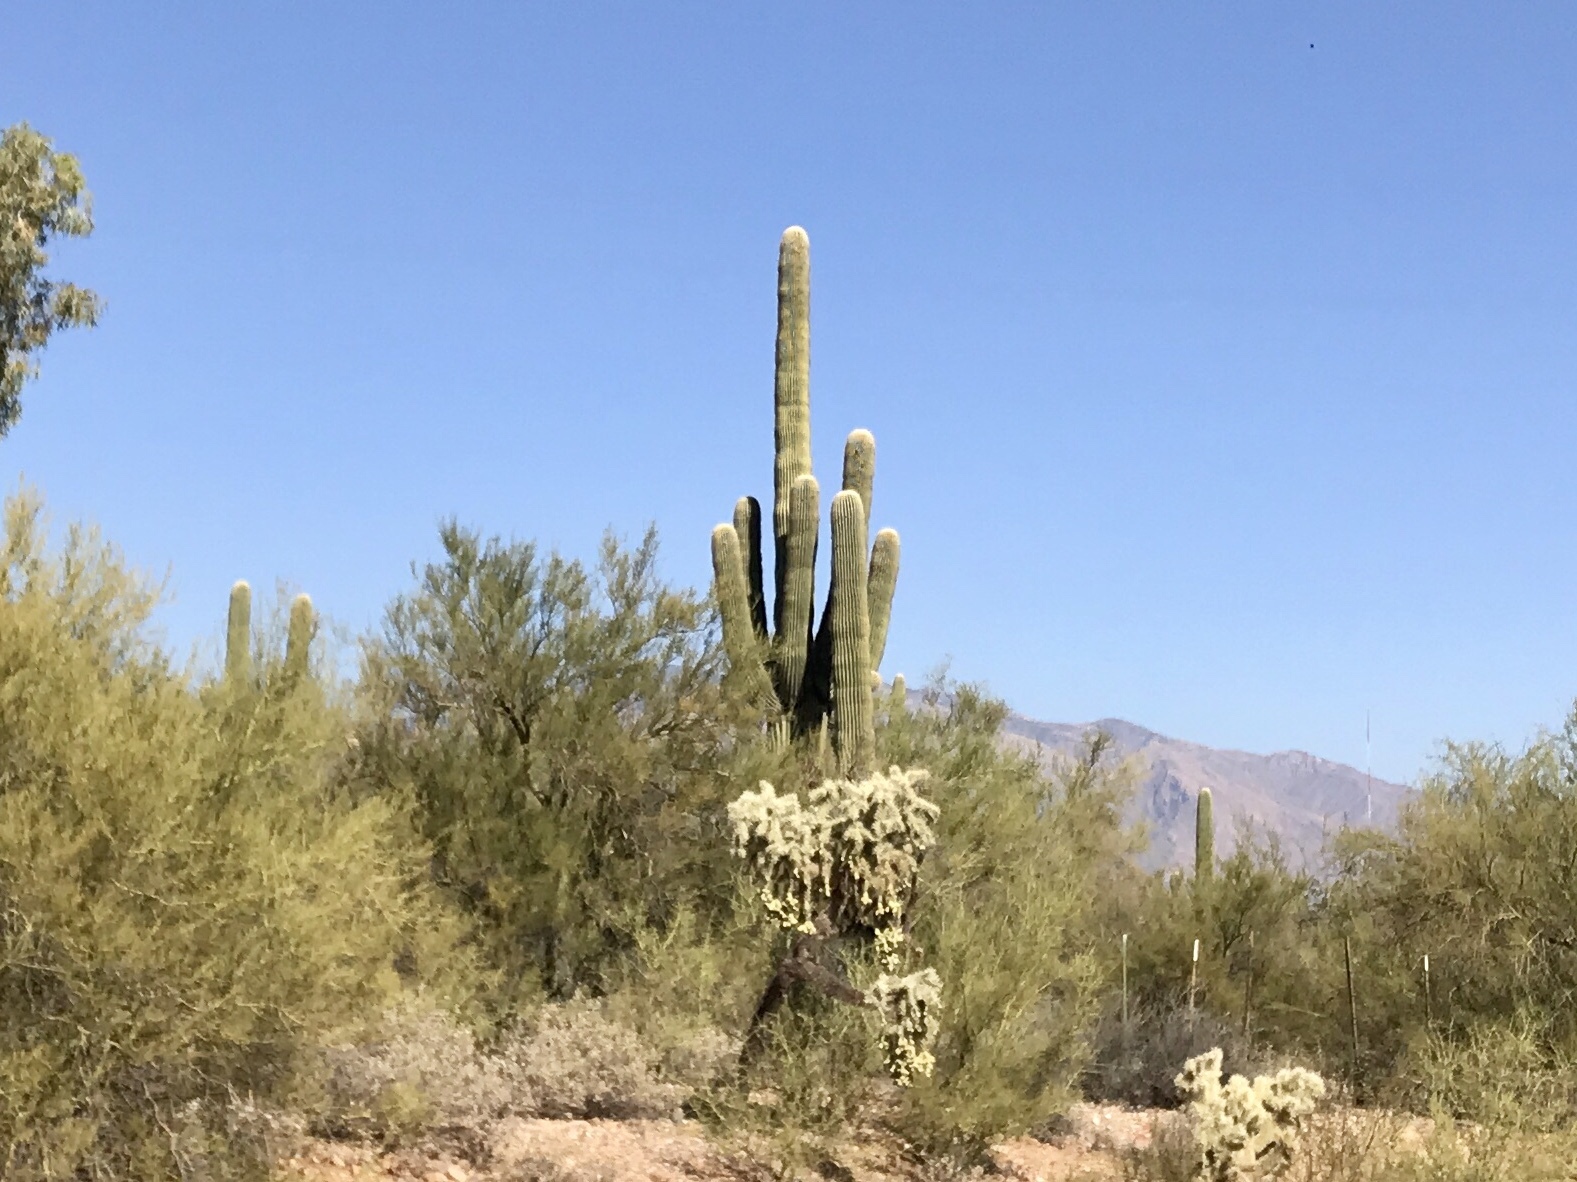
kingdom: Plantae
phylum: Tracheophyta
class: Magnoliopsida
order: Caryophyllales
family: Cactaceae
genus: Carnegiea
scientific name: Carnegiea gigantea
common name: Saguaro
